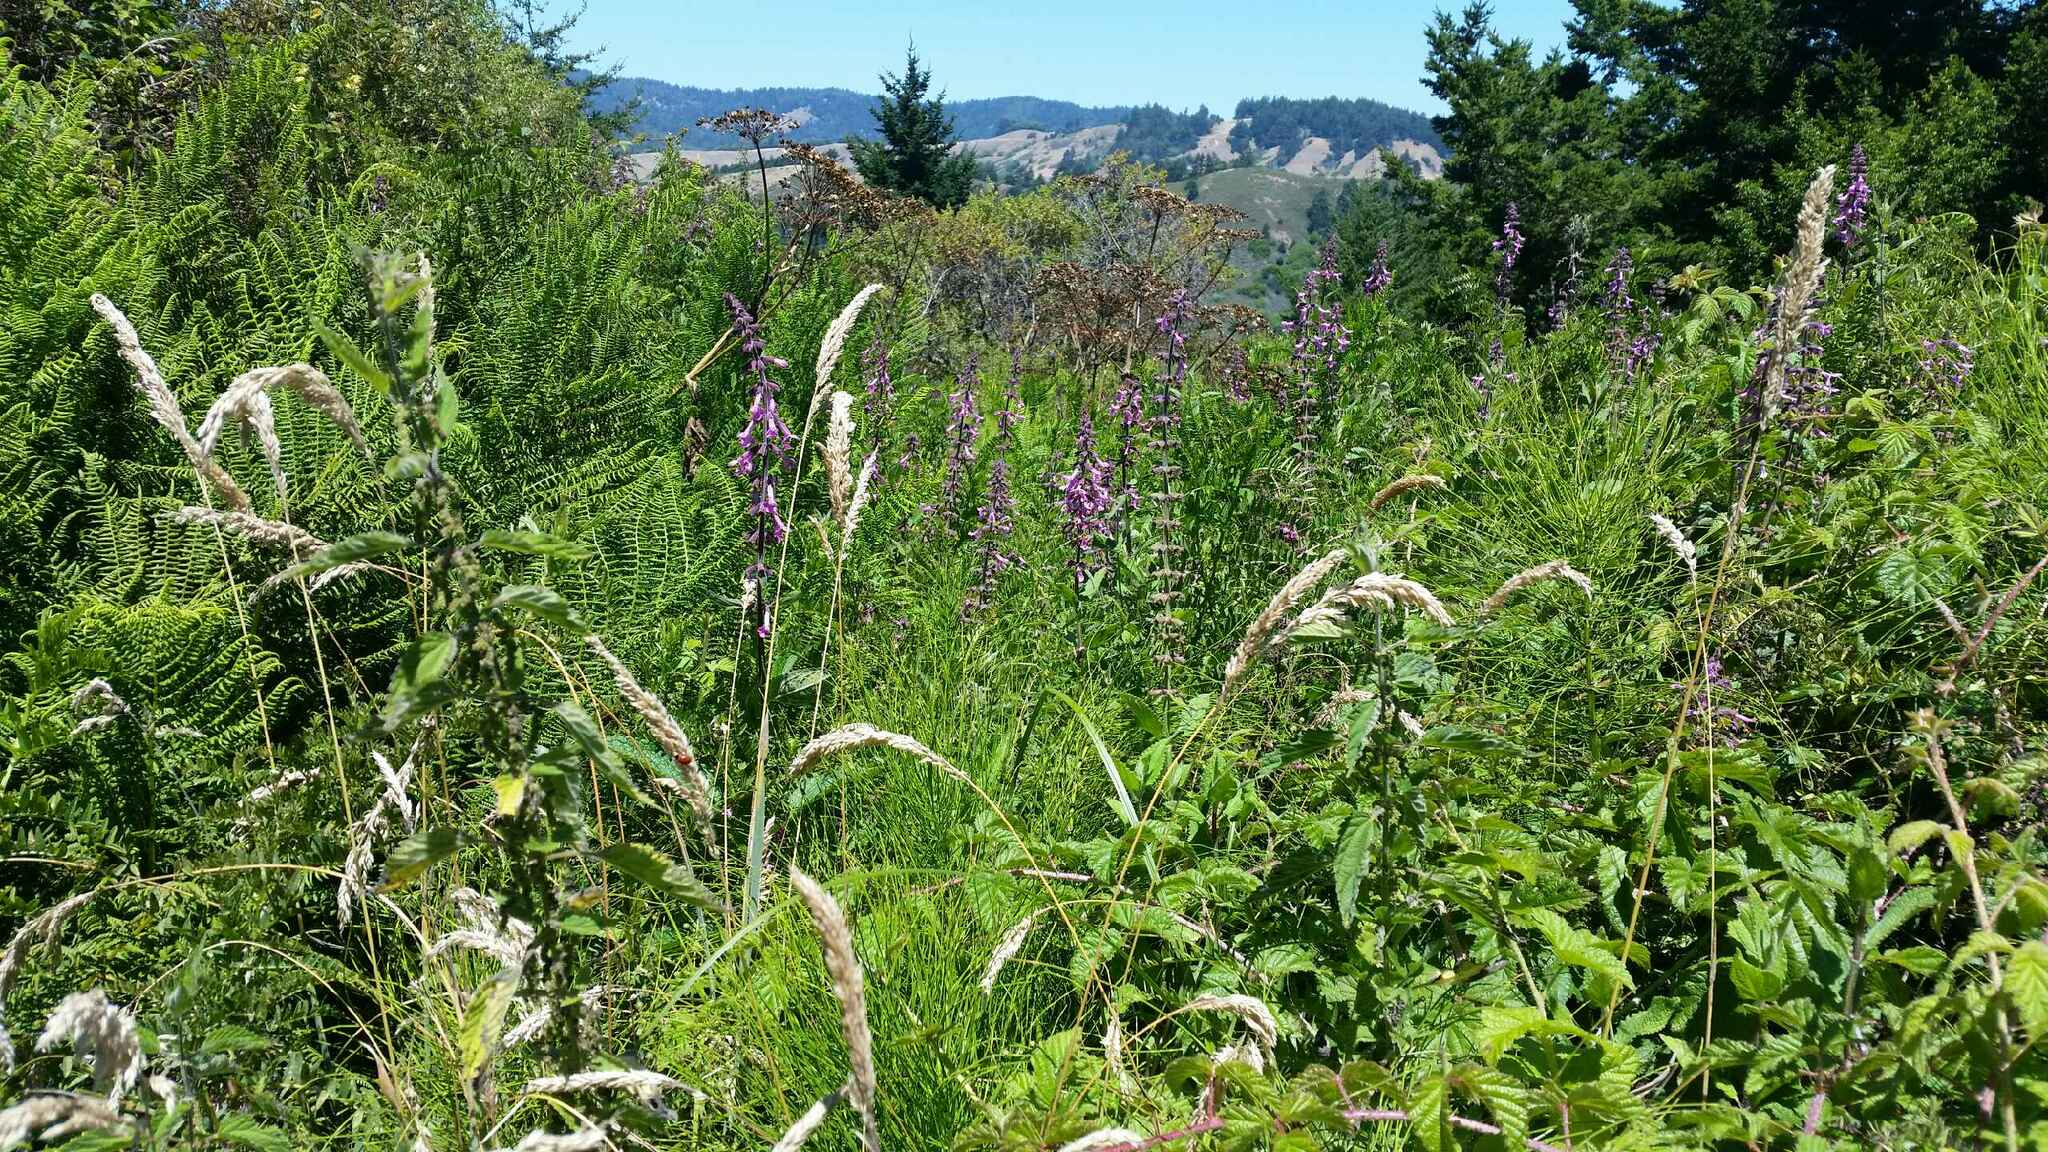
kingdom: Plantae
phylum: Tracheophyta
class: Magnoliopsida
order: Lamiales
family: Lamiaceae
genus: Stachys
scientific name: Stachys chamissonis
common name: Coastal hedge-nettle
